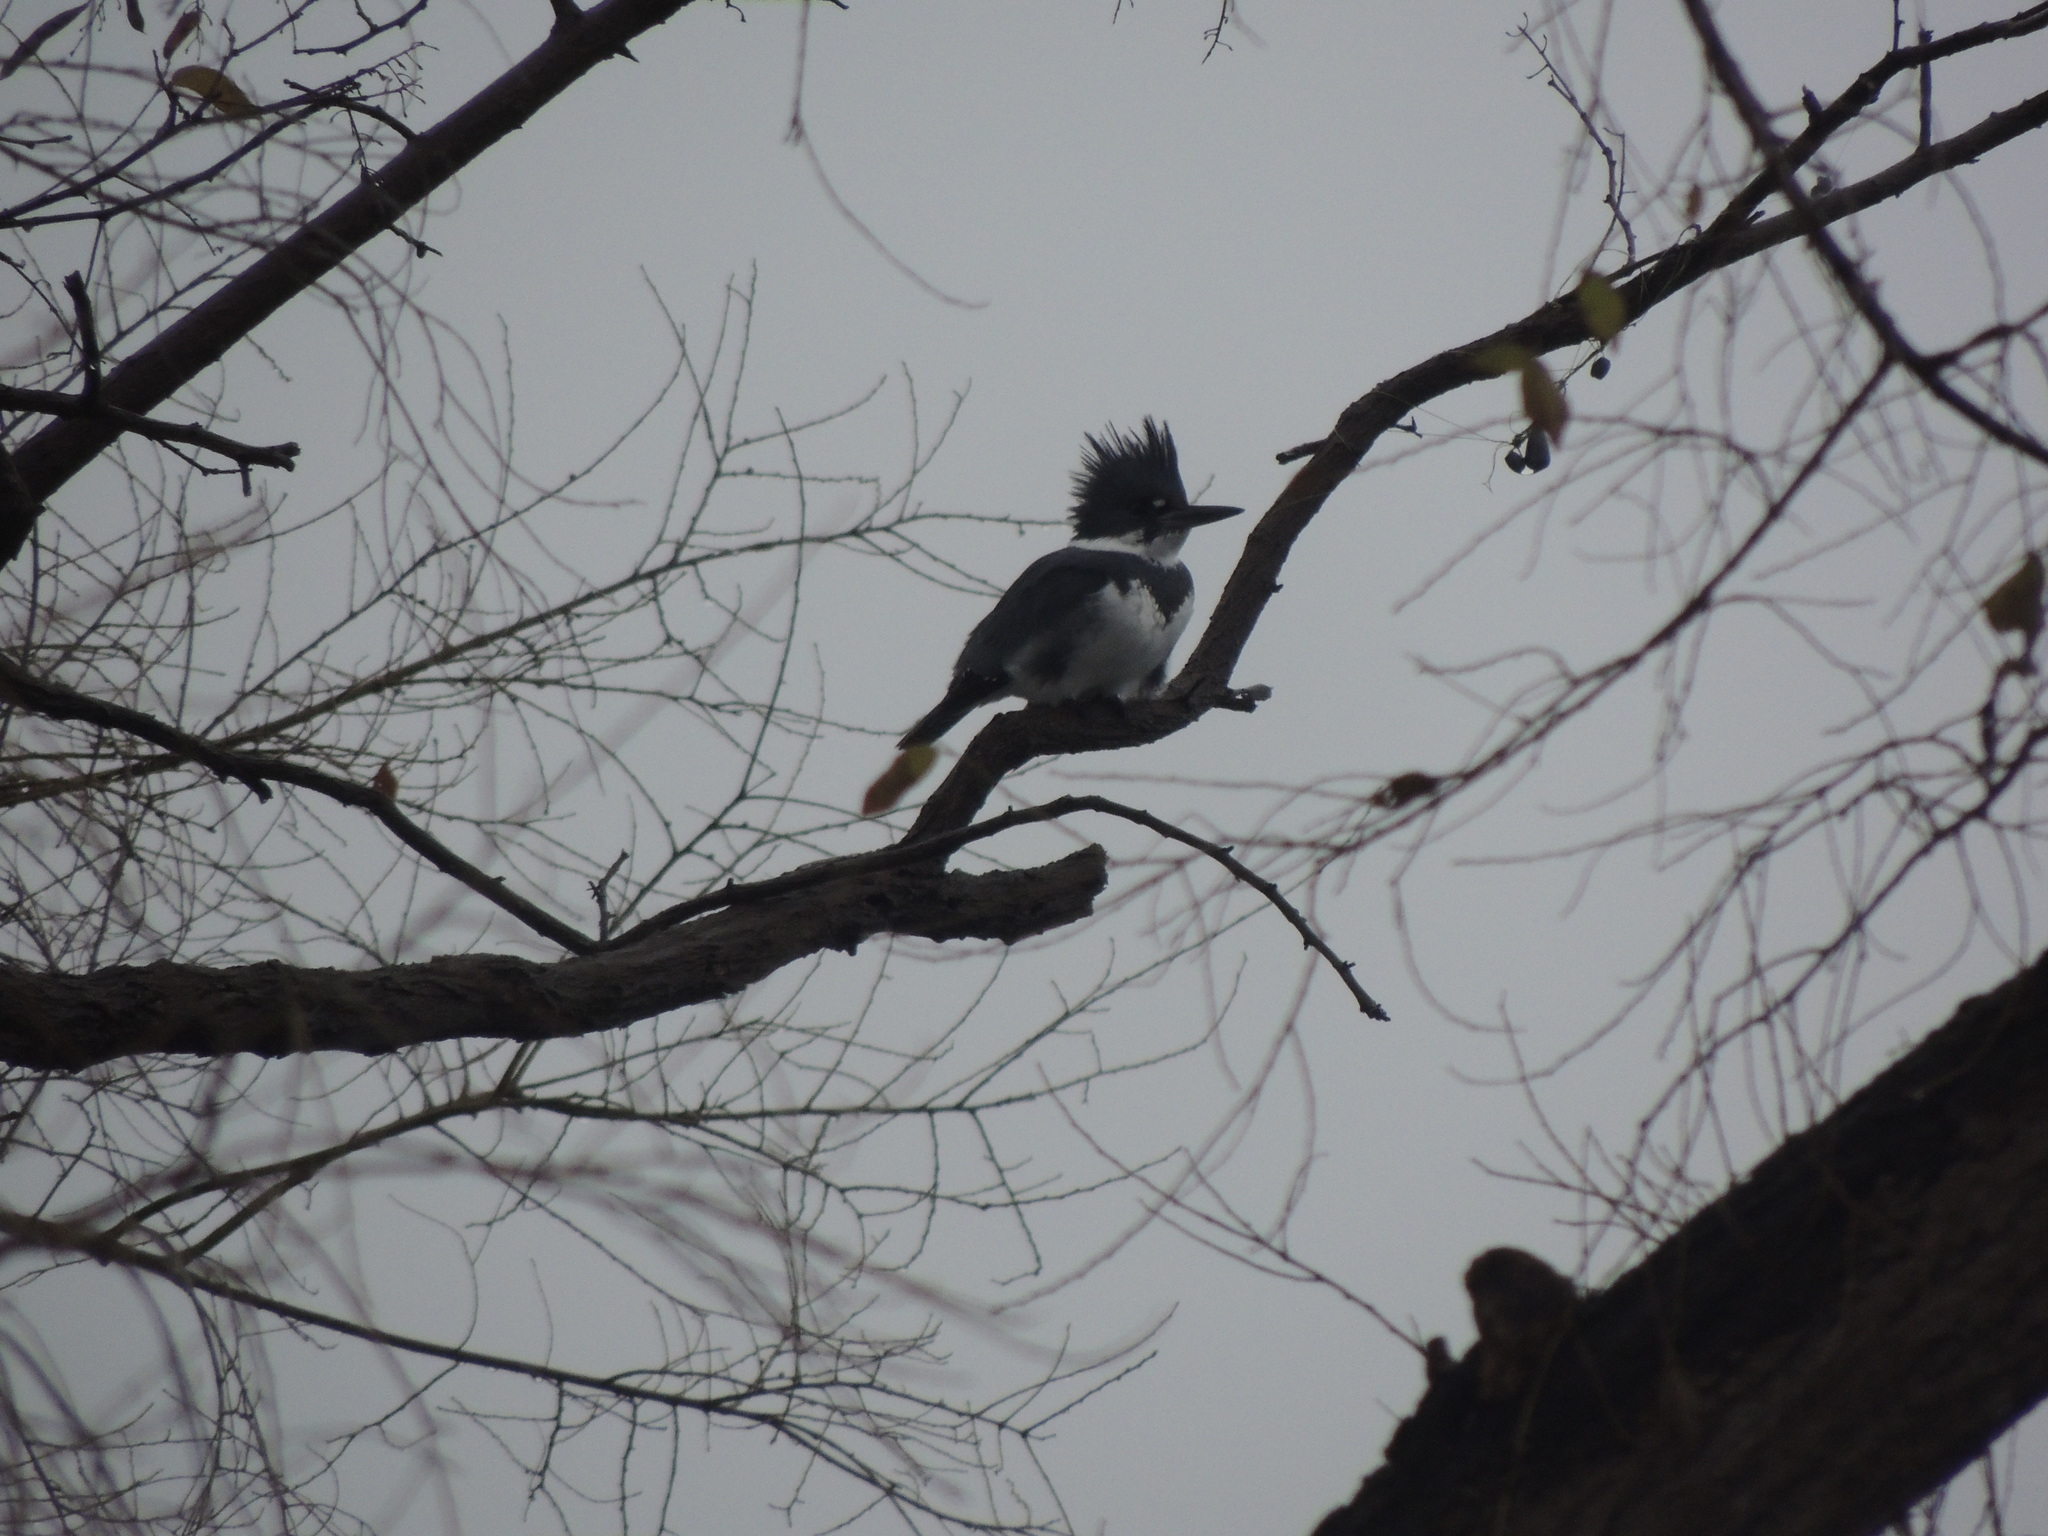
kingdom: Animalia
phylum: Chordata
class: Aves
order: Coraciiformes
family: Alcedinidae
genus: Megaceryle
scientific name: Megaceryle alcyon
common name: Belted kingfisher
